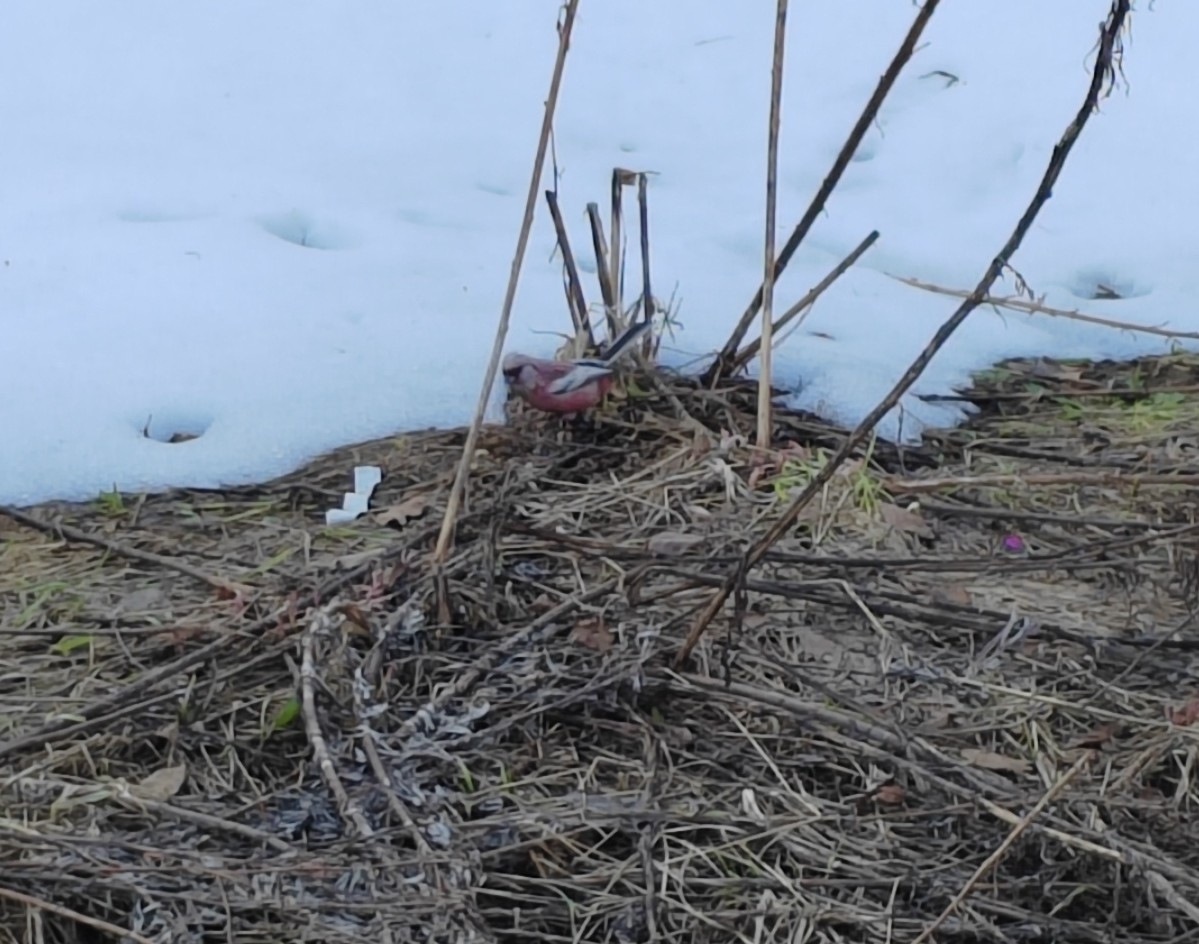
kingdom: Animalia
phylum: Chordata
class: Aves
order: Passeriformes
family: Fringillidae
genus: Carpodacus
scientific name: Carpodacus sibiricus
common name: Long-tailed rosefinch
